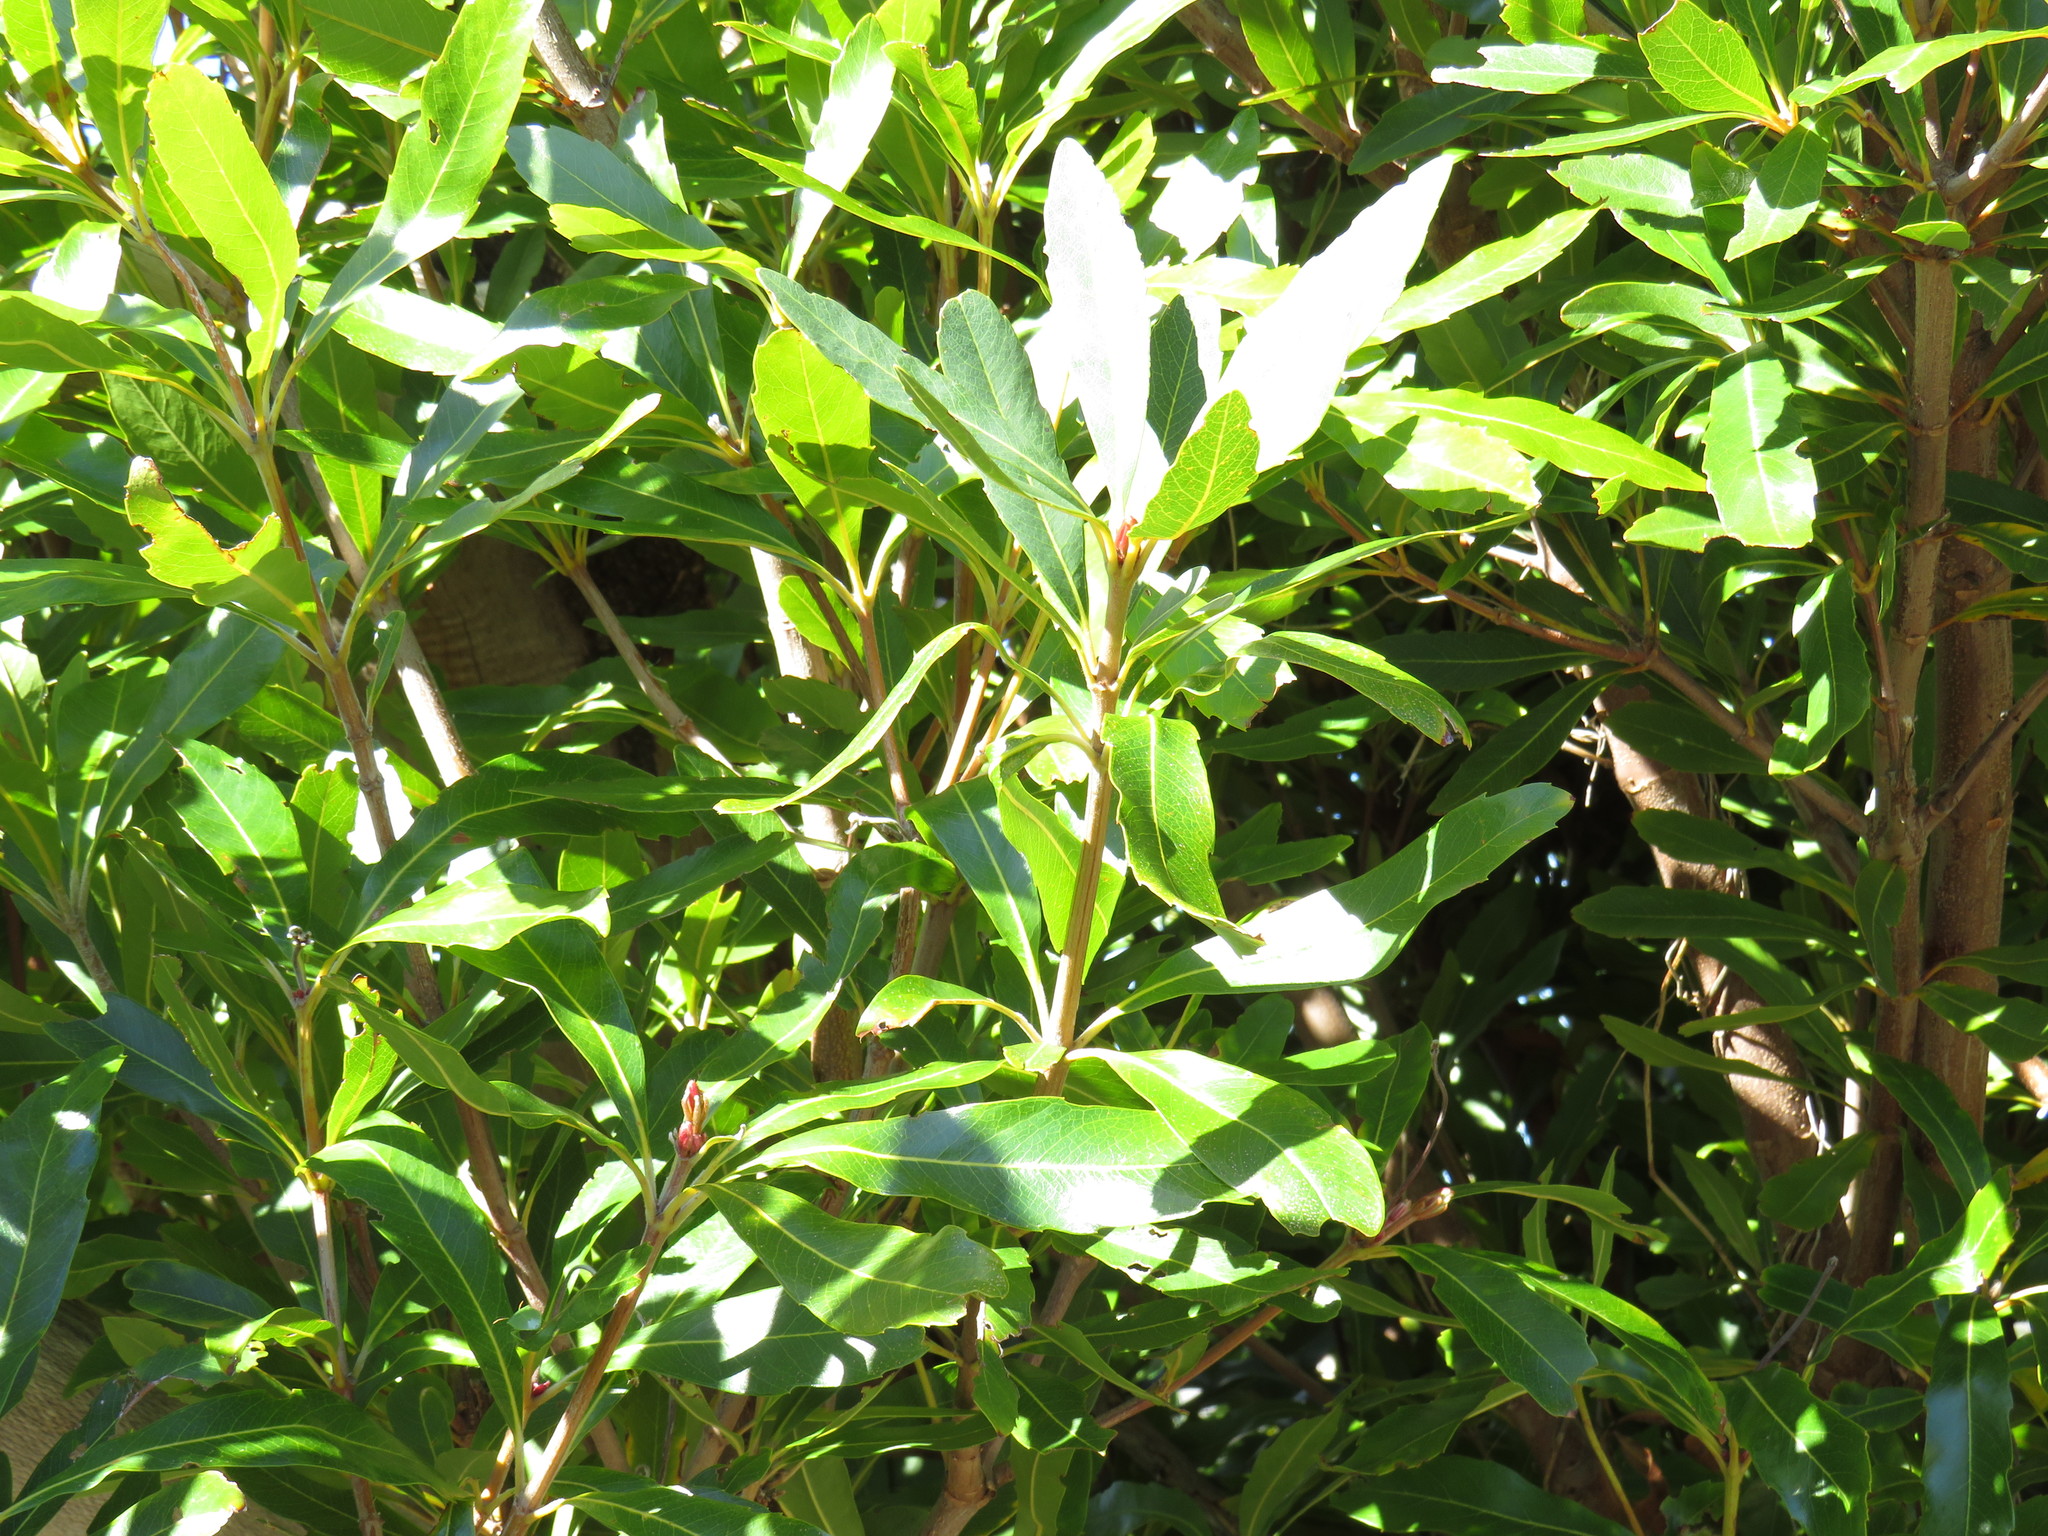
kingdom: Plantae
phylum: Tracheophyta
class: Magnoliopsida
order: Proteales
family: Proteaceae
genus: Brabejum
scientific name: Brabejum stellatifolium
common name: Wild almond
